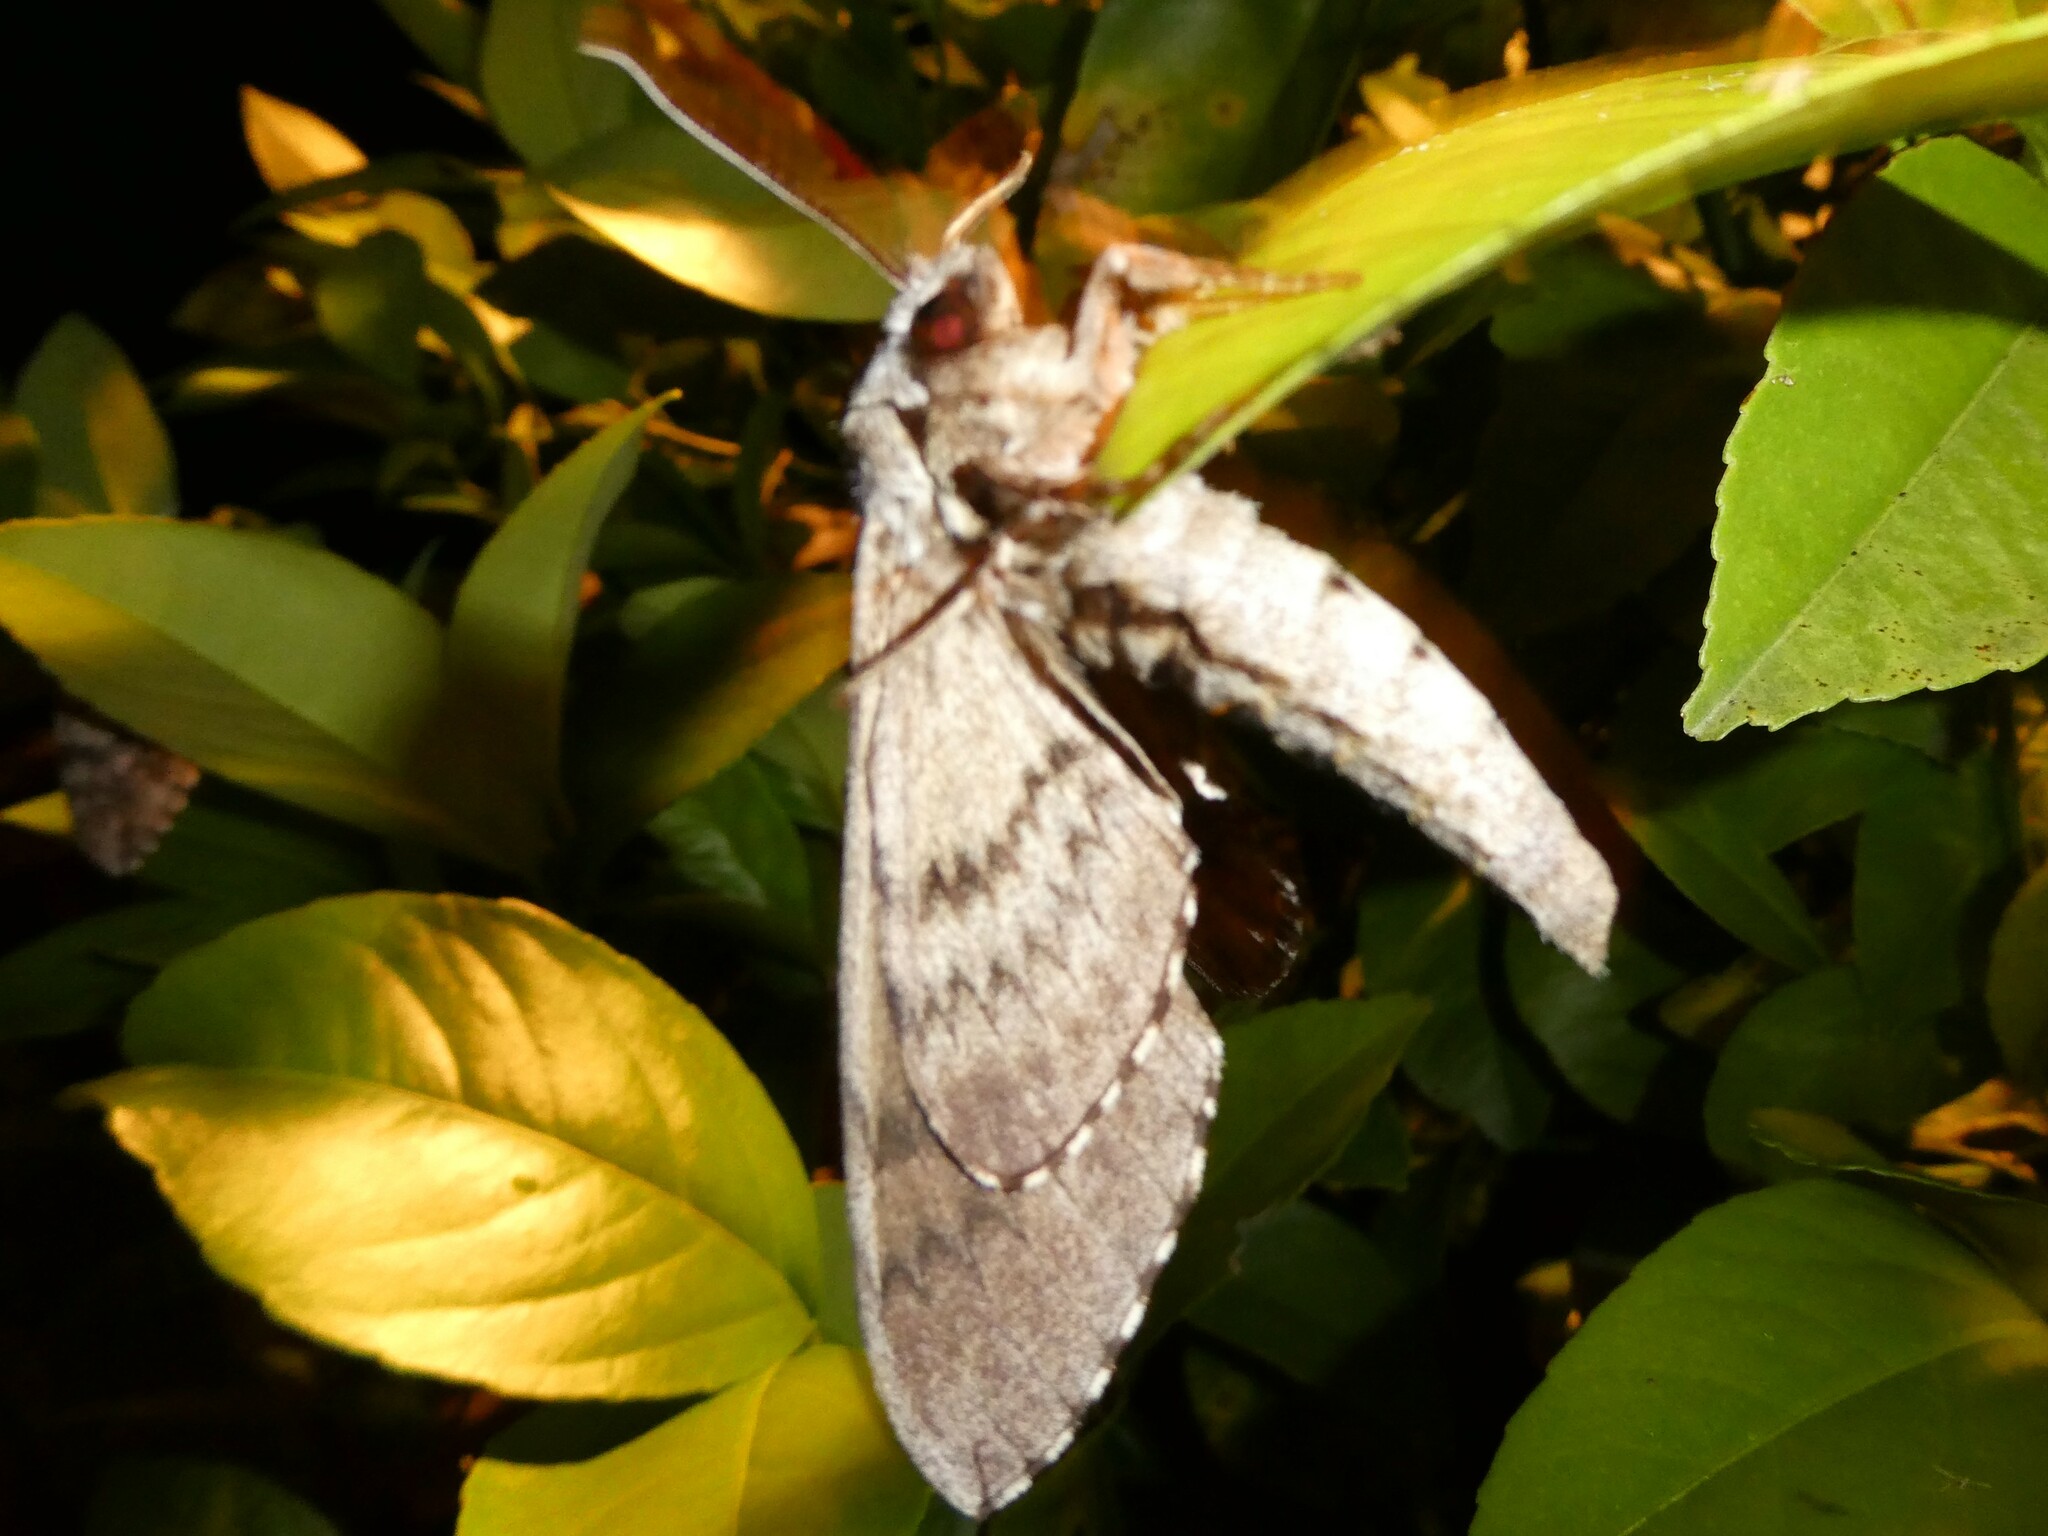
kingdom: Animalia
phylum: Arthropoda
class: Insecta
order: Lepidoptera
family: Sphingidae
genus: Ceratomia
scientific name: Ceratomia undulosa
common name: Waved sphinx
